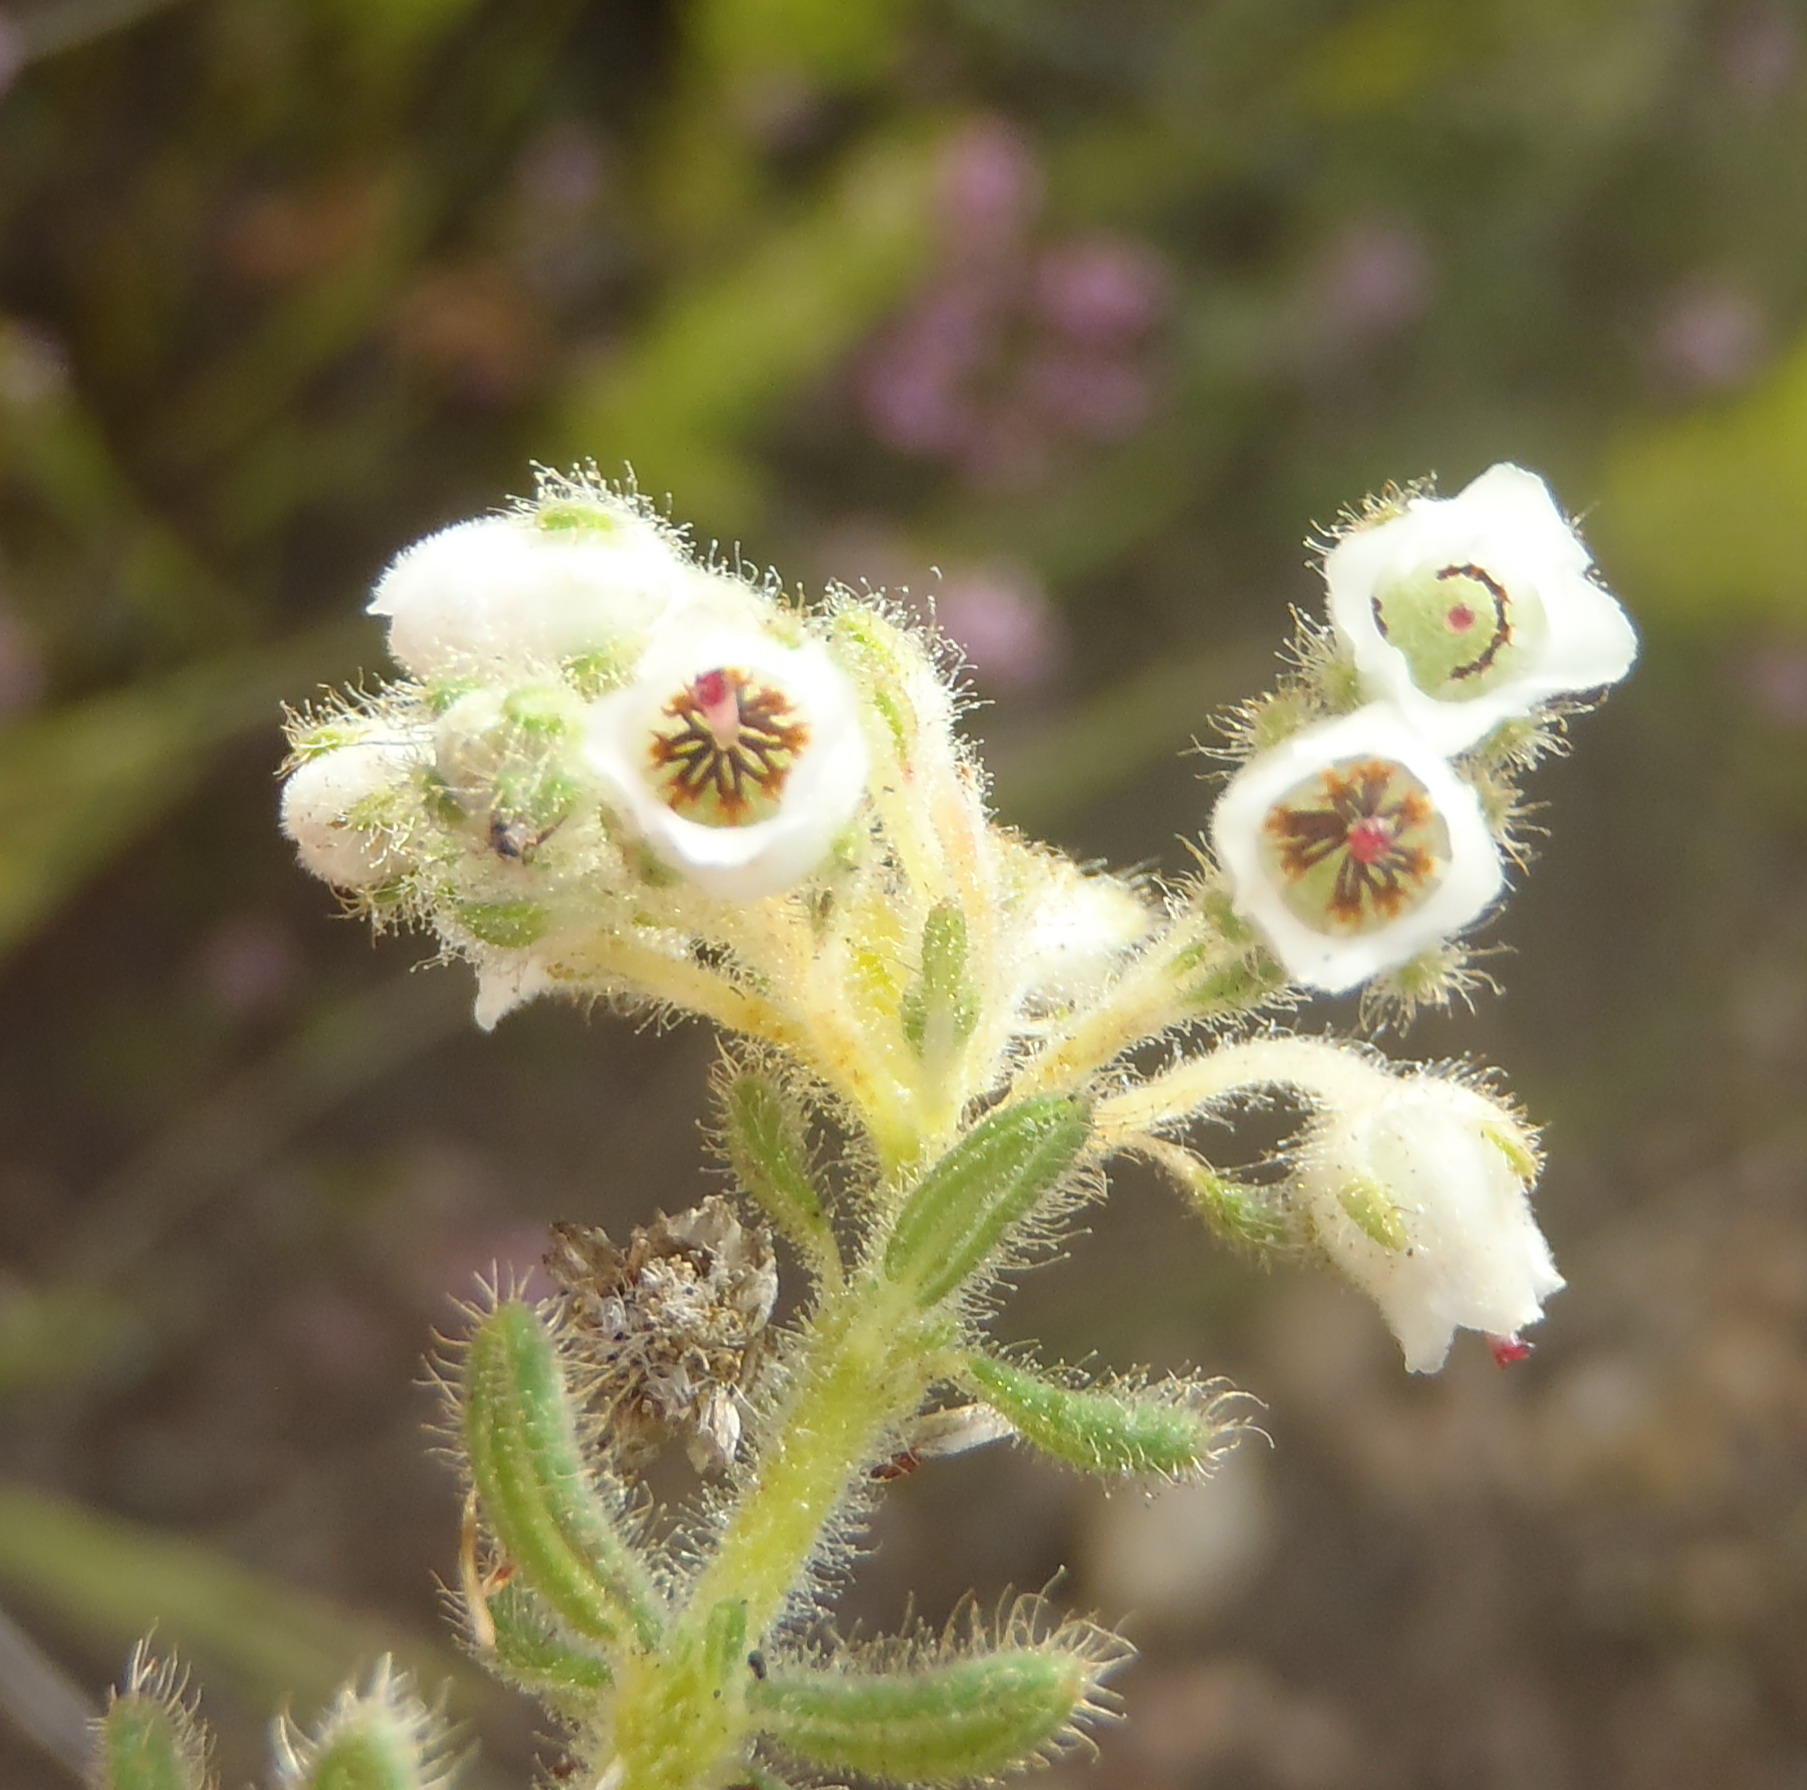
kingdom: Plantae
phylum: Tracheophyta
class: Magnoliopsida
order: Ericales
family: Ericaceae
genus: Erica
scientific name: Erica pannosa
